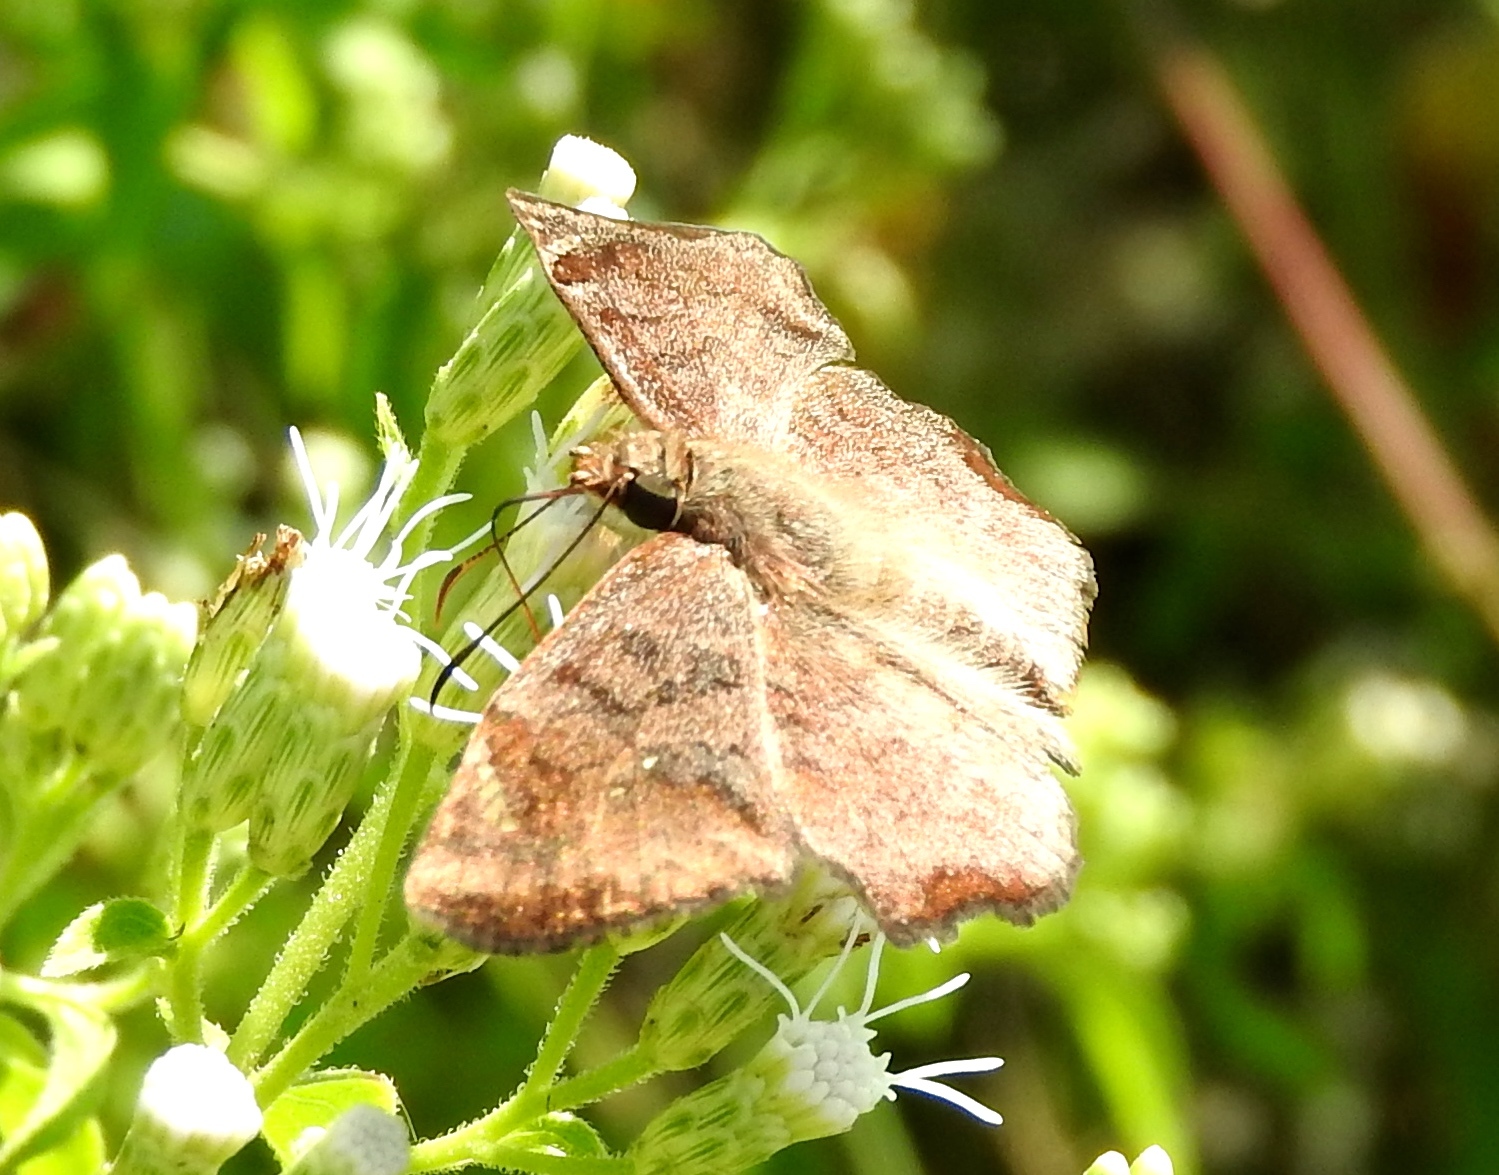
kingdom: Animalia
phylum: Arthropoda
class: Insecta
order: Lepidoptera
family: Hesperiidae
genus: Antigonus
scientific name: Antigonus erosus
